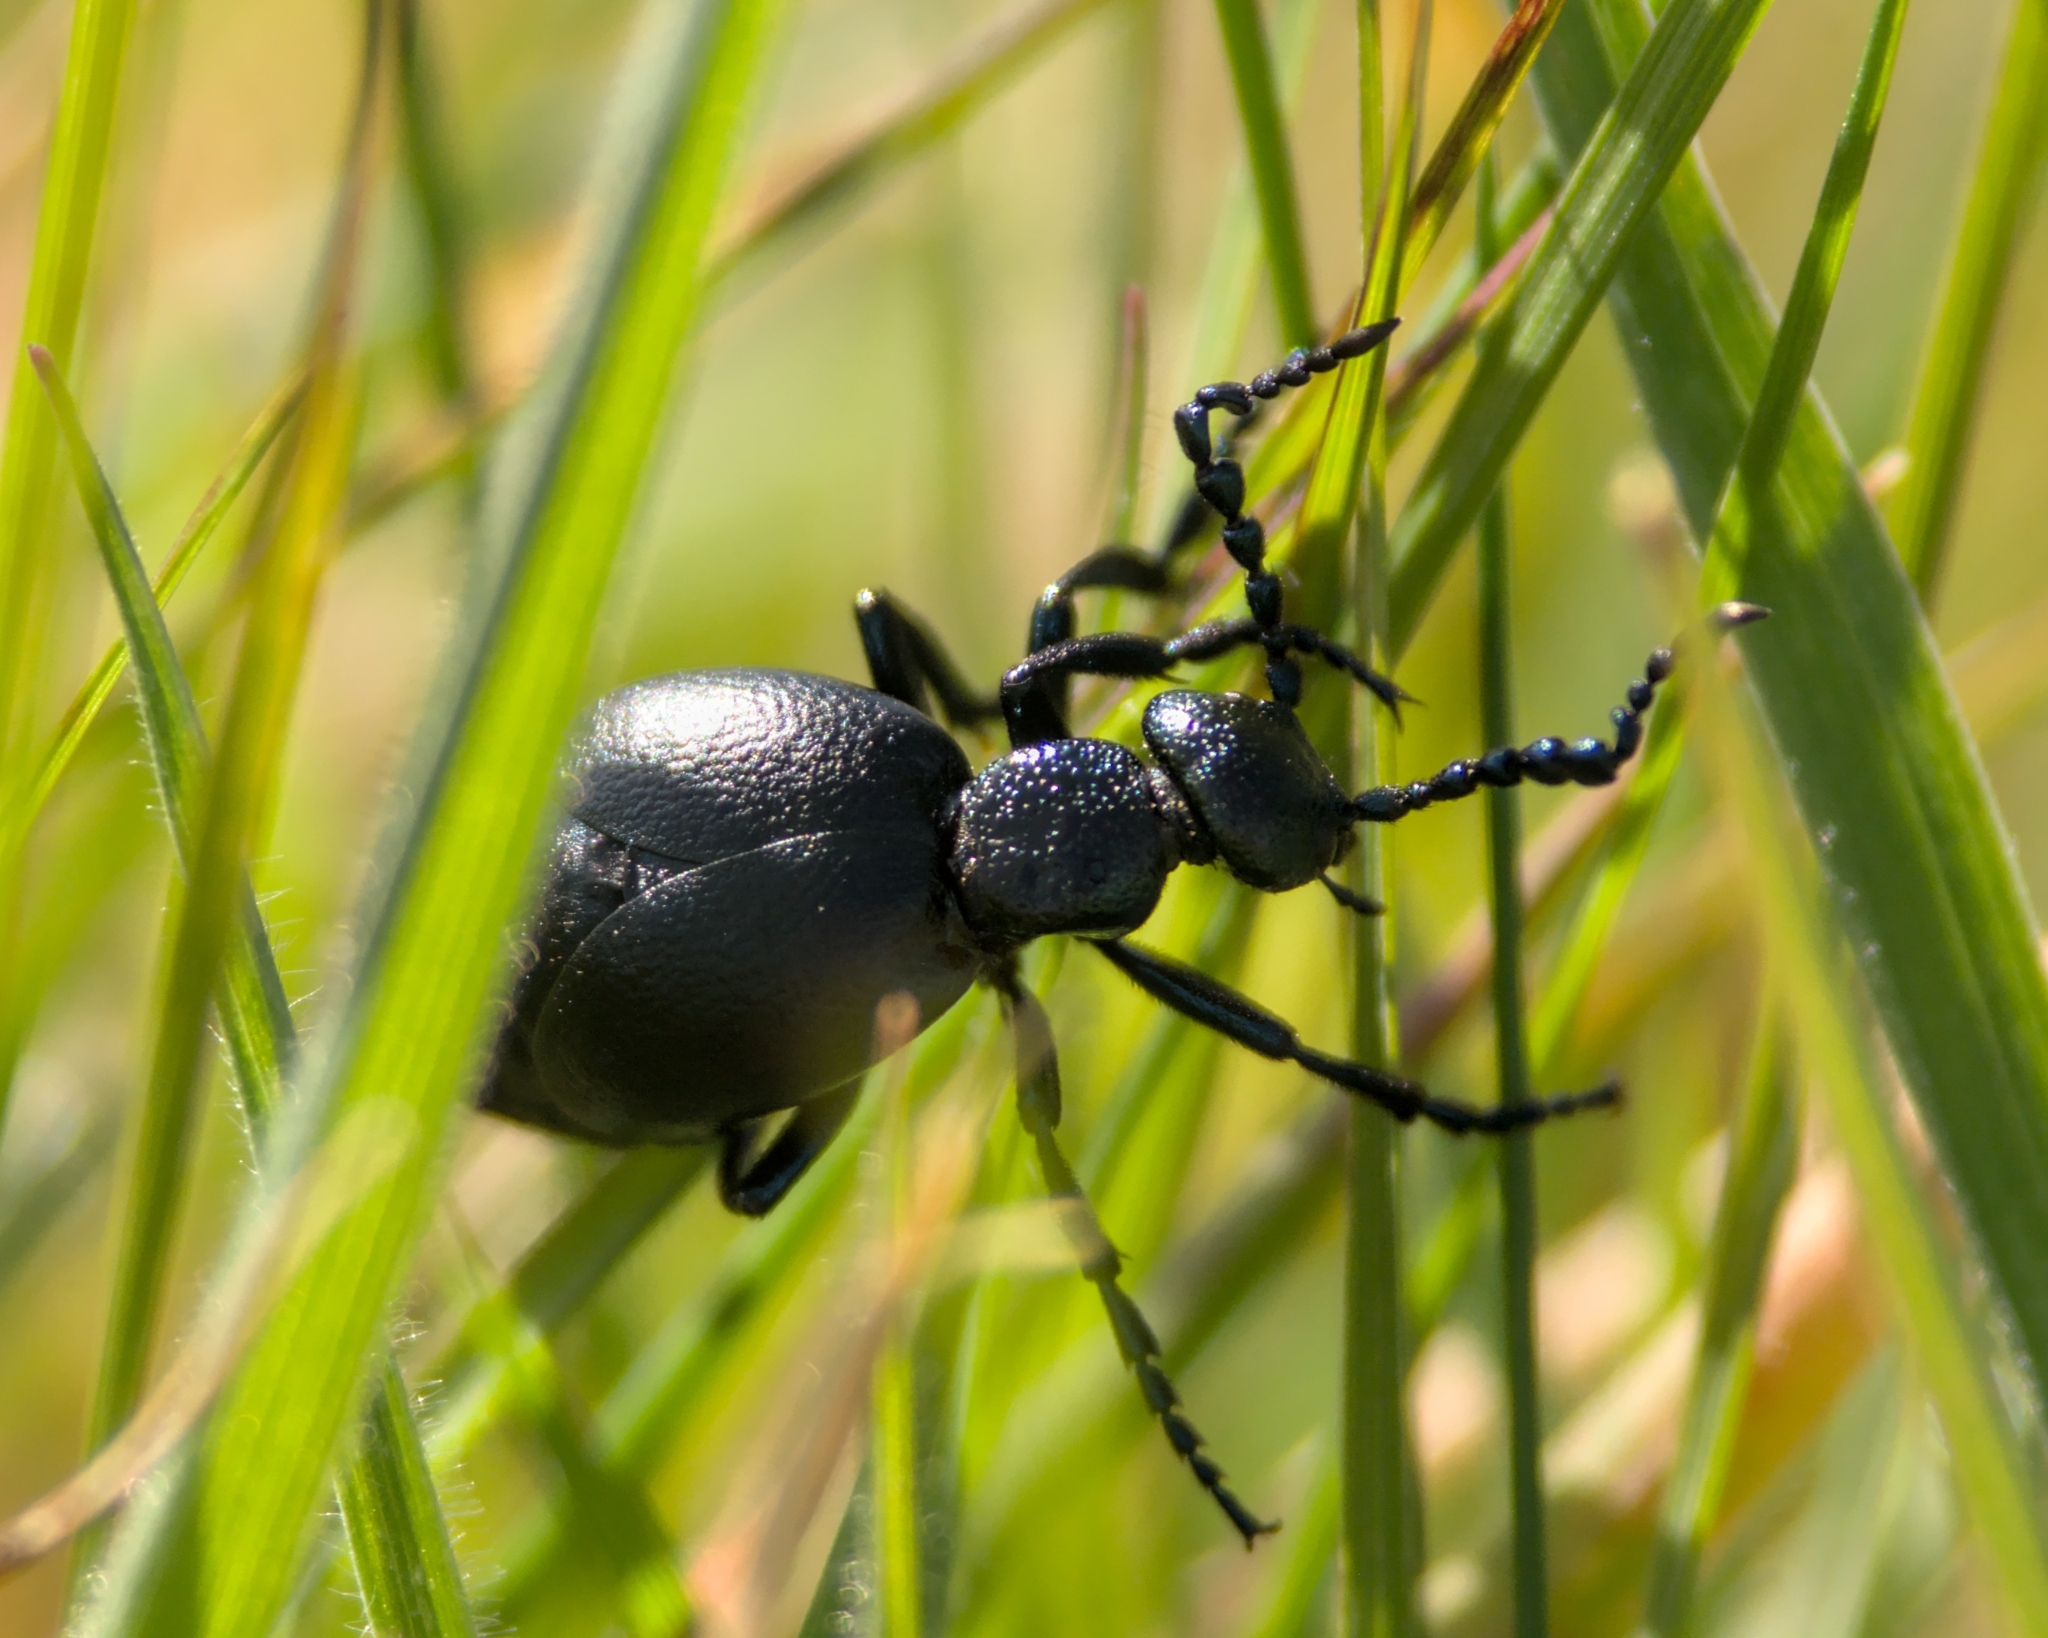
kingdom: Animalia
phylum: Arthropoda
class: Insecta
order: Coleoptera
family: Meloidae
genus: Meloe
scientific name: Meloe proscarabaeus
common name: Black oil-beetle
